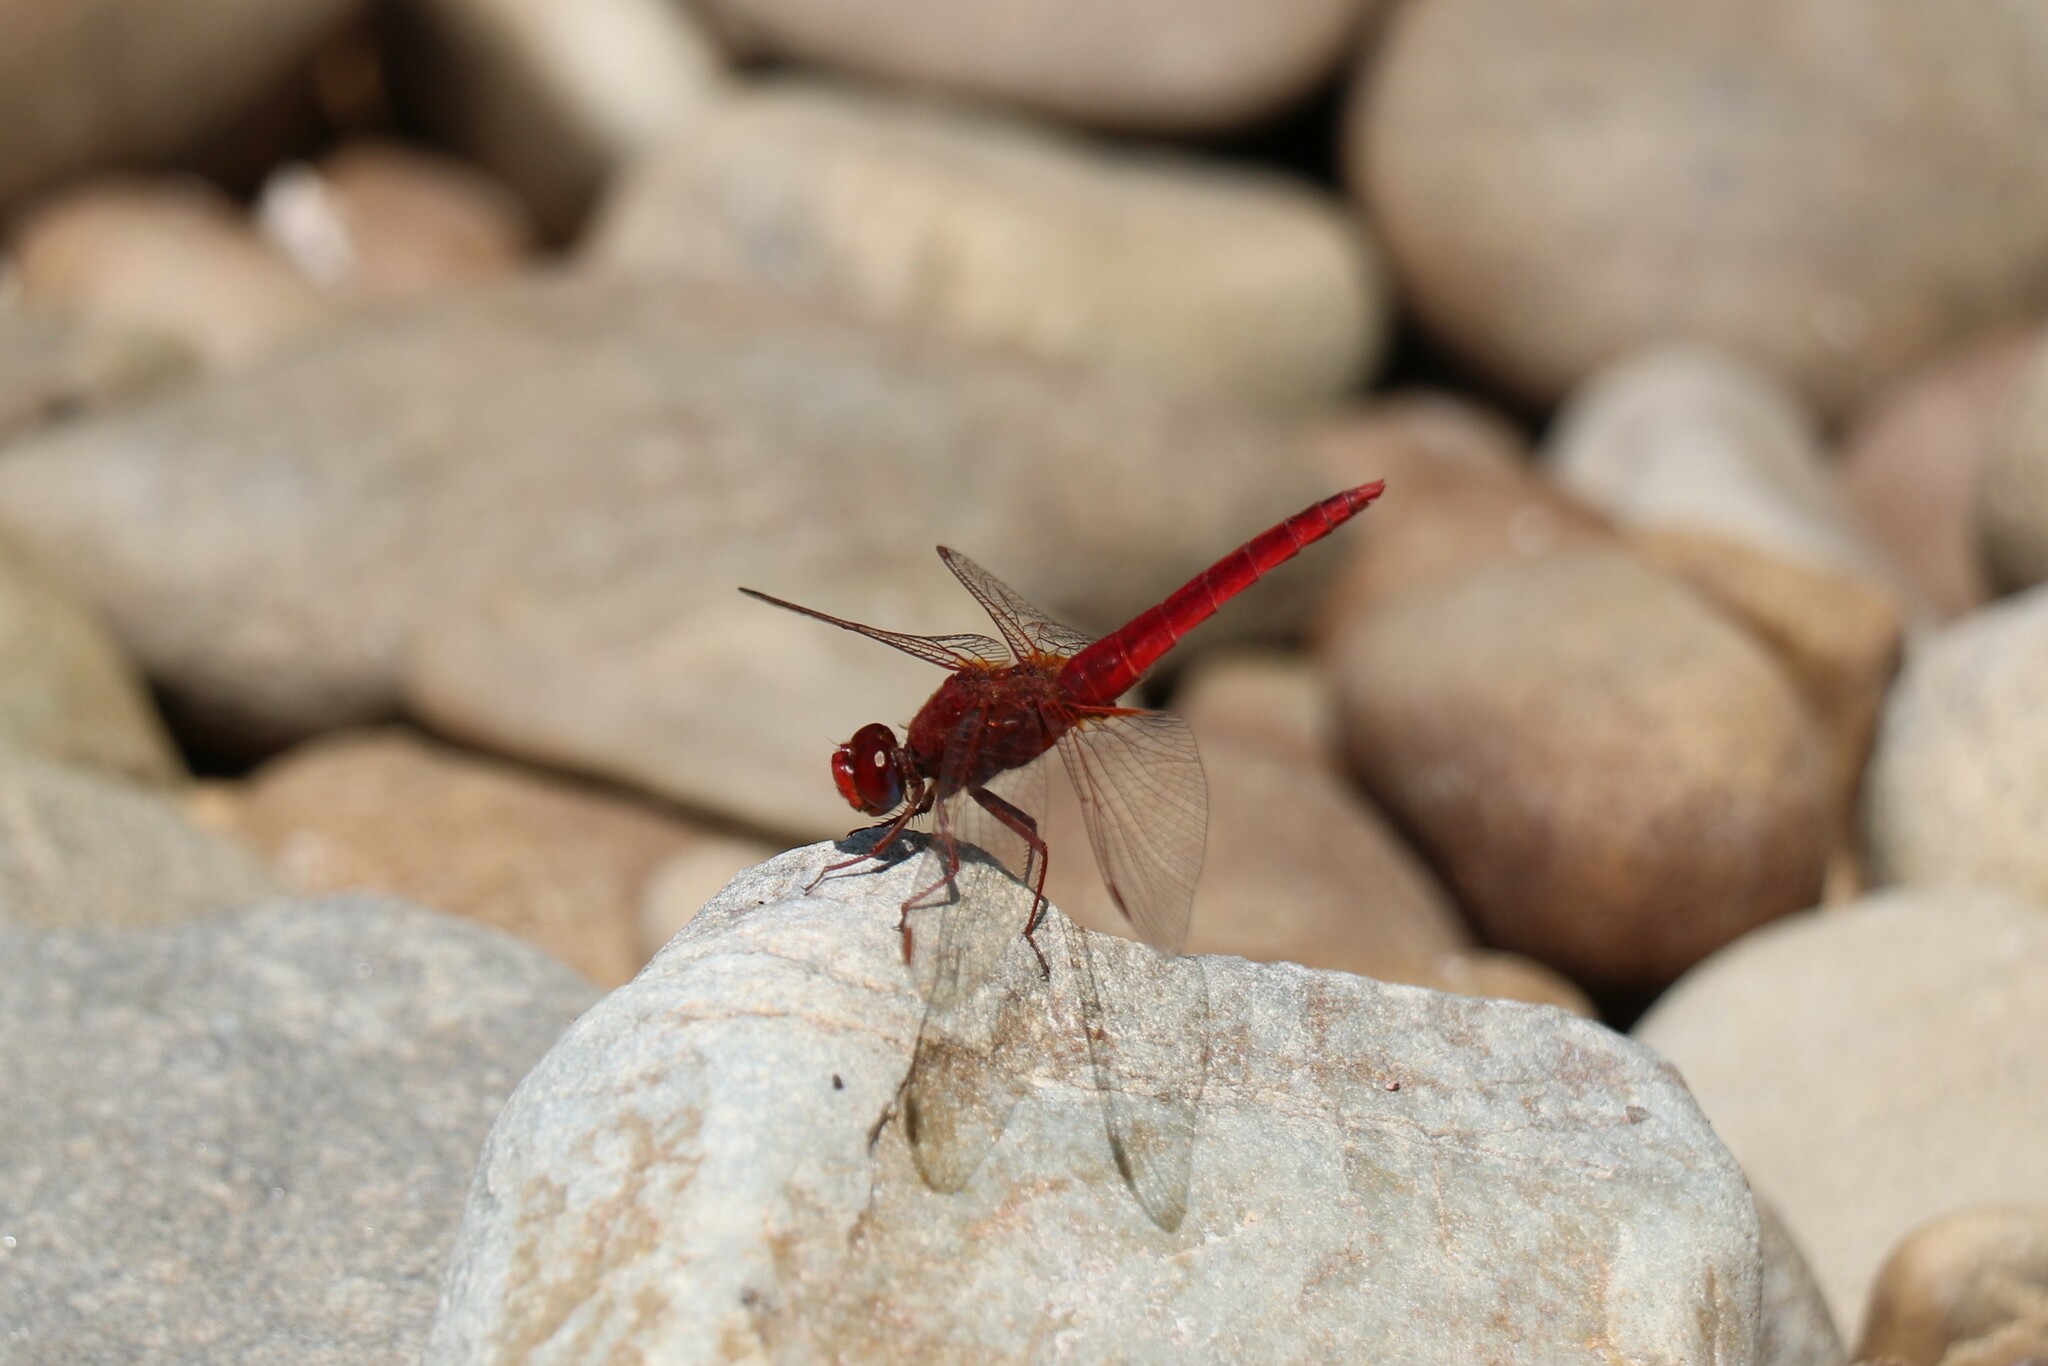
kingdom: Animalia
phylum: Arthropoda
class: Insecta
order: Odonata
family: Libellulidae
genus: Crocothemis
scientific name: Crocothemis erythraea
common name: Scarlet dragonfly
